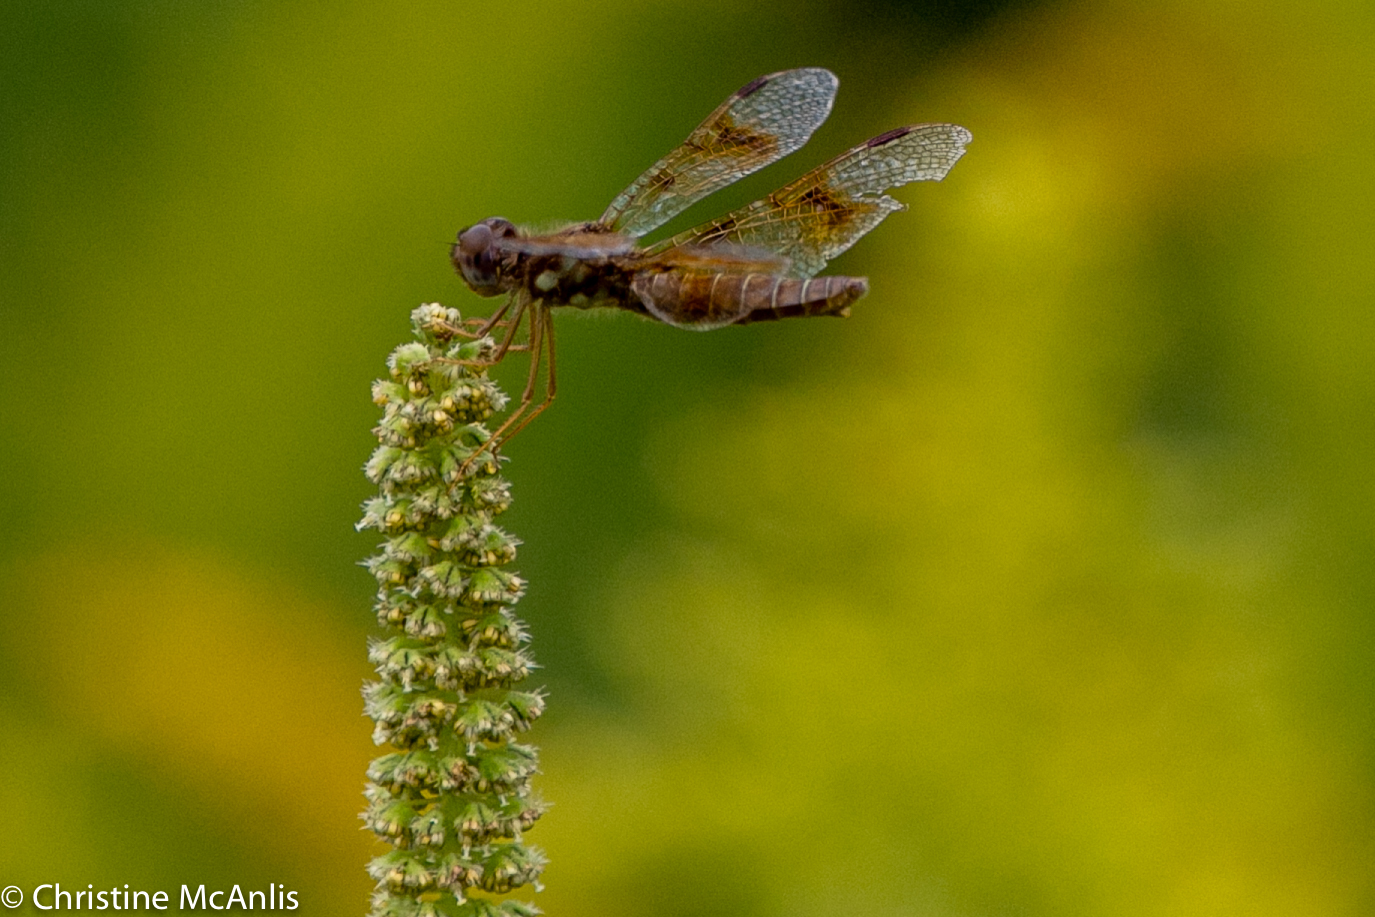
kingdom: Animalia
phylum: Arthropoda
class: Insecta
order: Odonata
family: Libellulidae
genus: Perithemis
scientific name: Perithemis tenera
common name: Eastern amberwing
